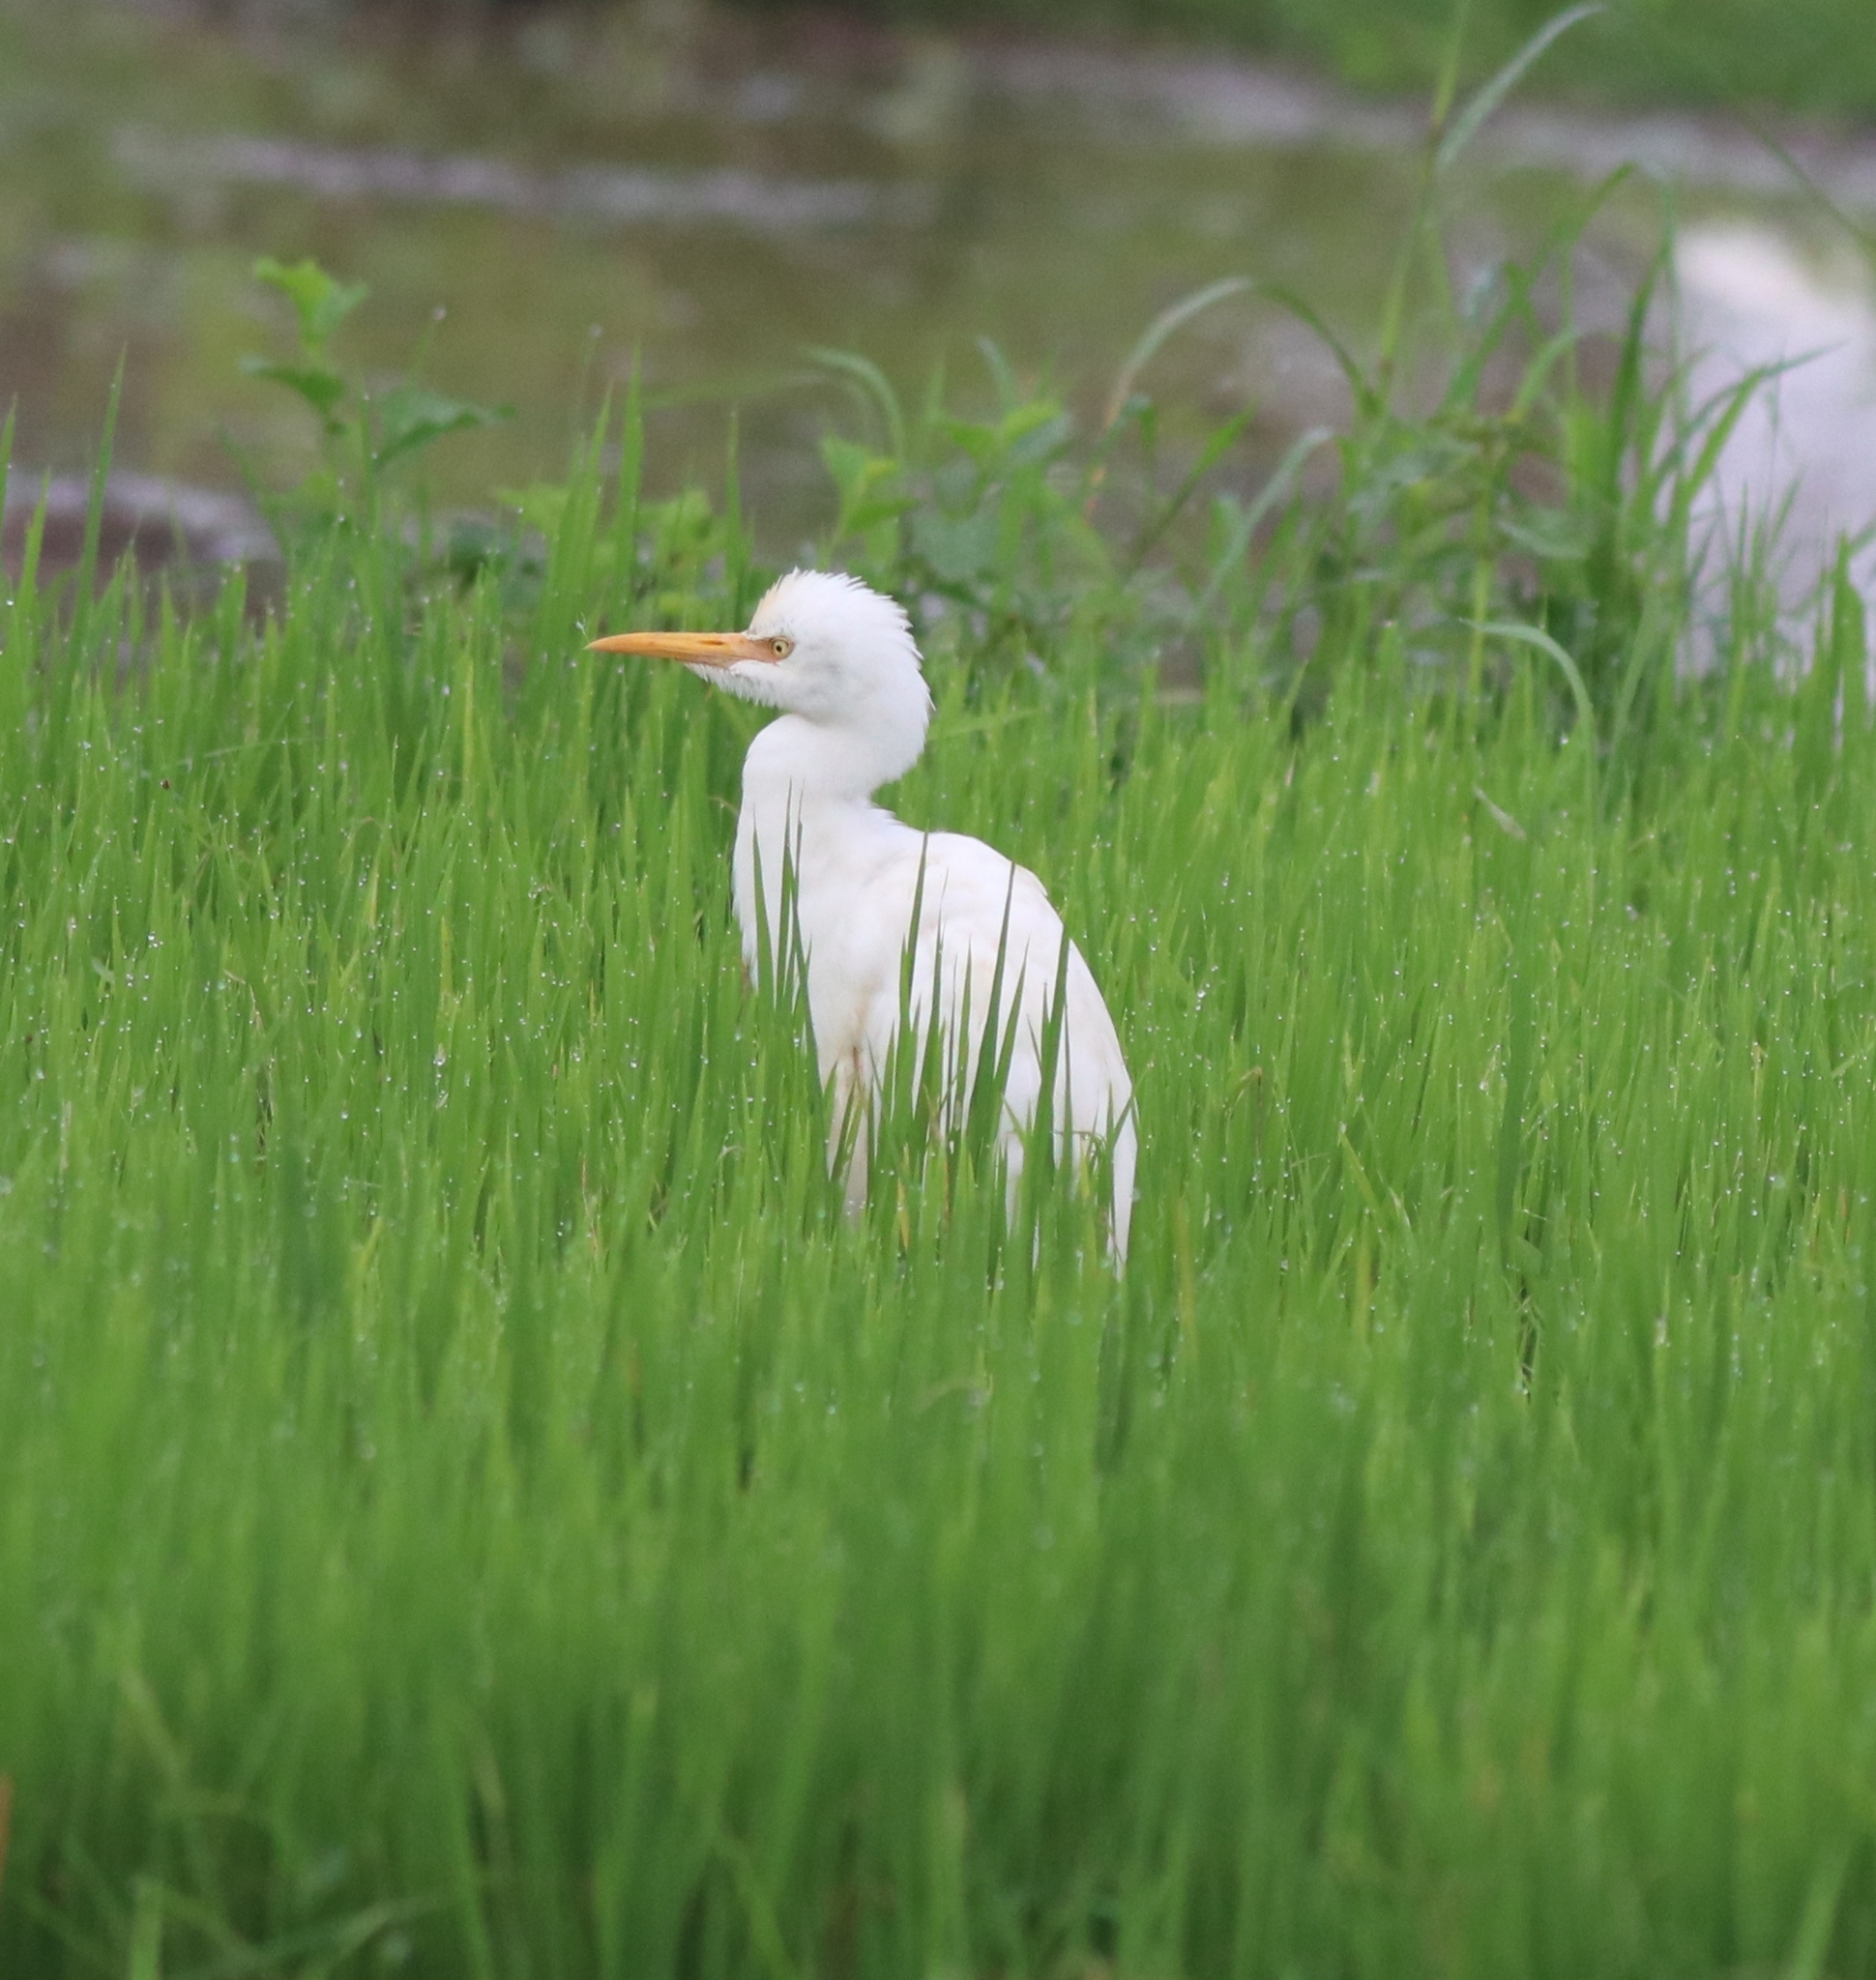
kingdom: Animalia
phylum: Chordata
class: Aves
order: Pelecaniformes
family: Ardeidae
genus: Bubulcus
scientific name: Bubulcus coromandus
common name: Eastern cattle egret
